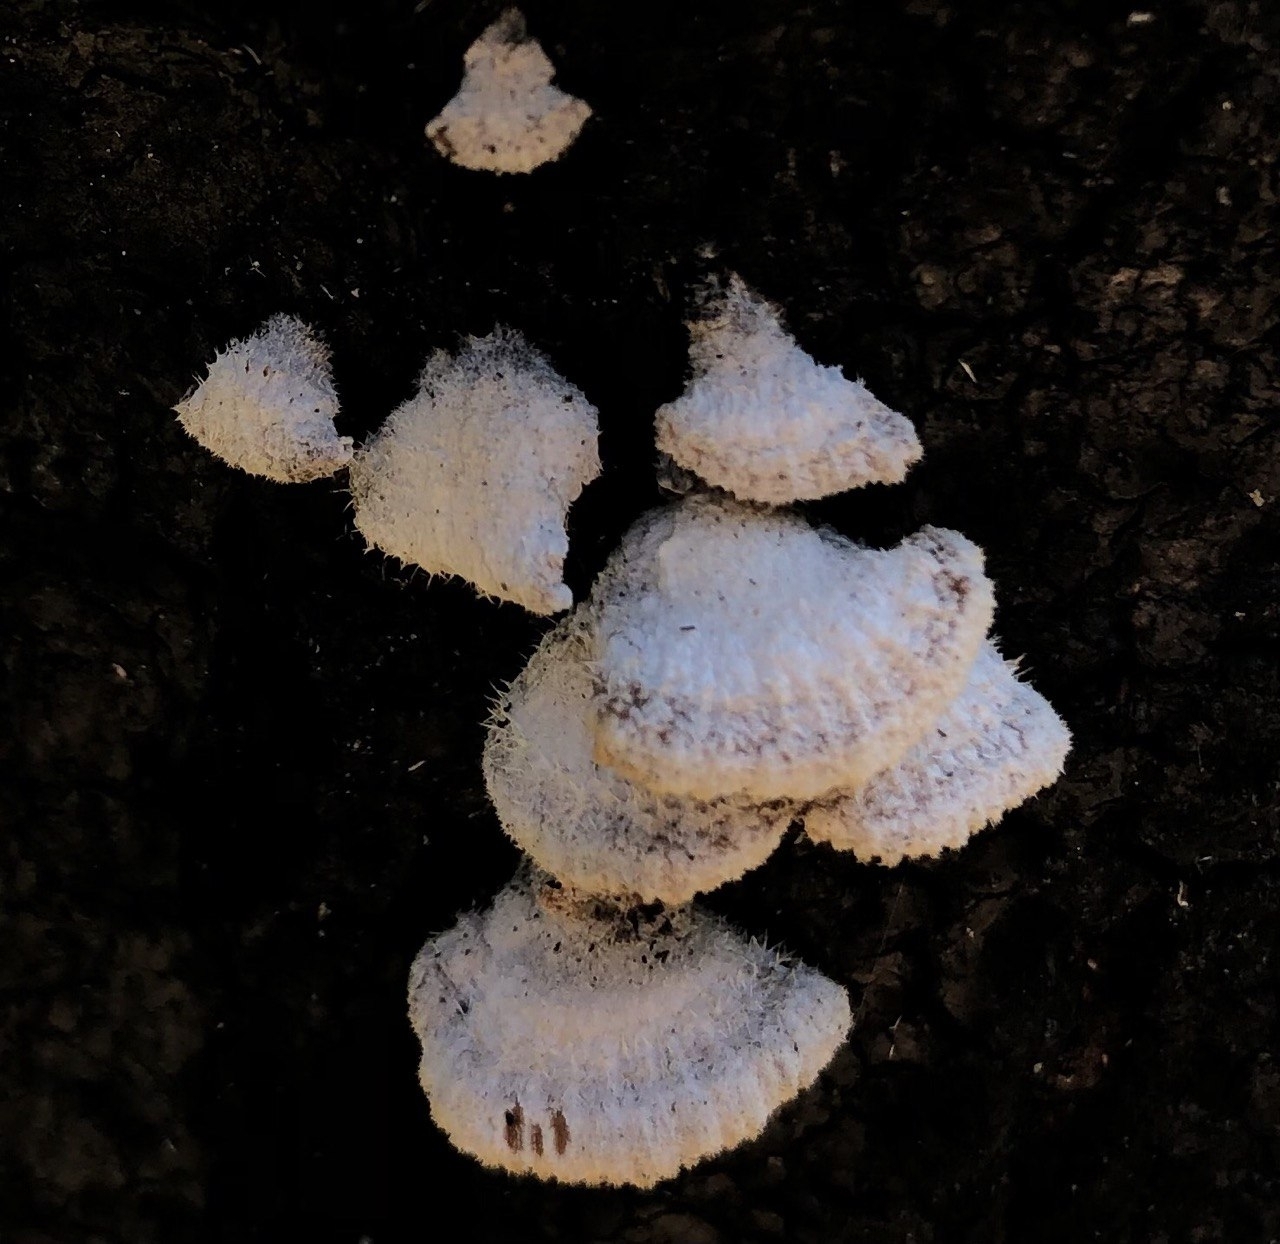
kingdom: Fungi
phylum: Basidiomycota
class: Agaricomycetes
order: Agaricales
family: Schizophyllaceae
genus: Schizophyllum
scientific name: Schizophyllum commune
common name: Common porecrust
